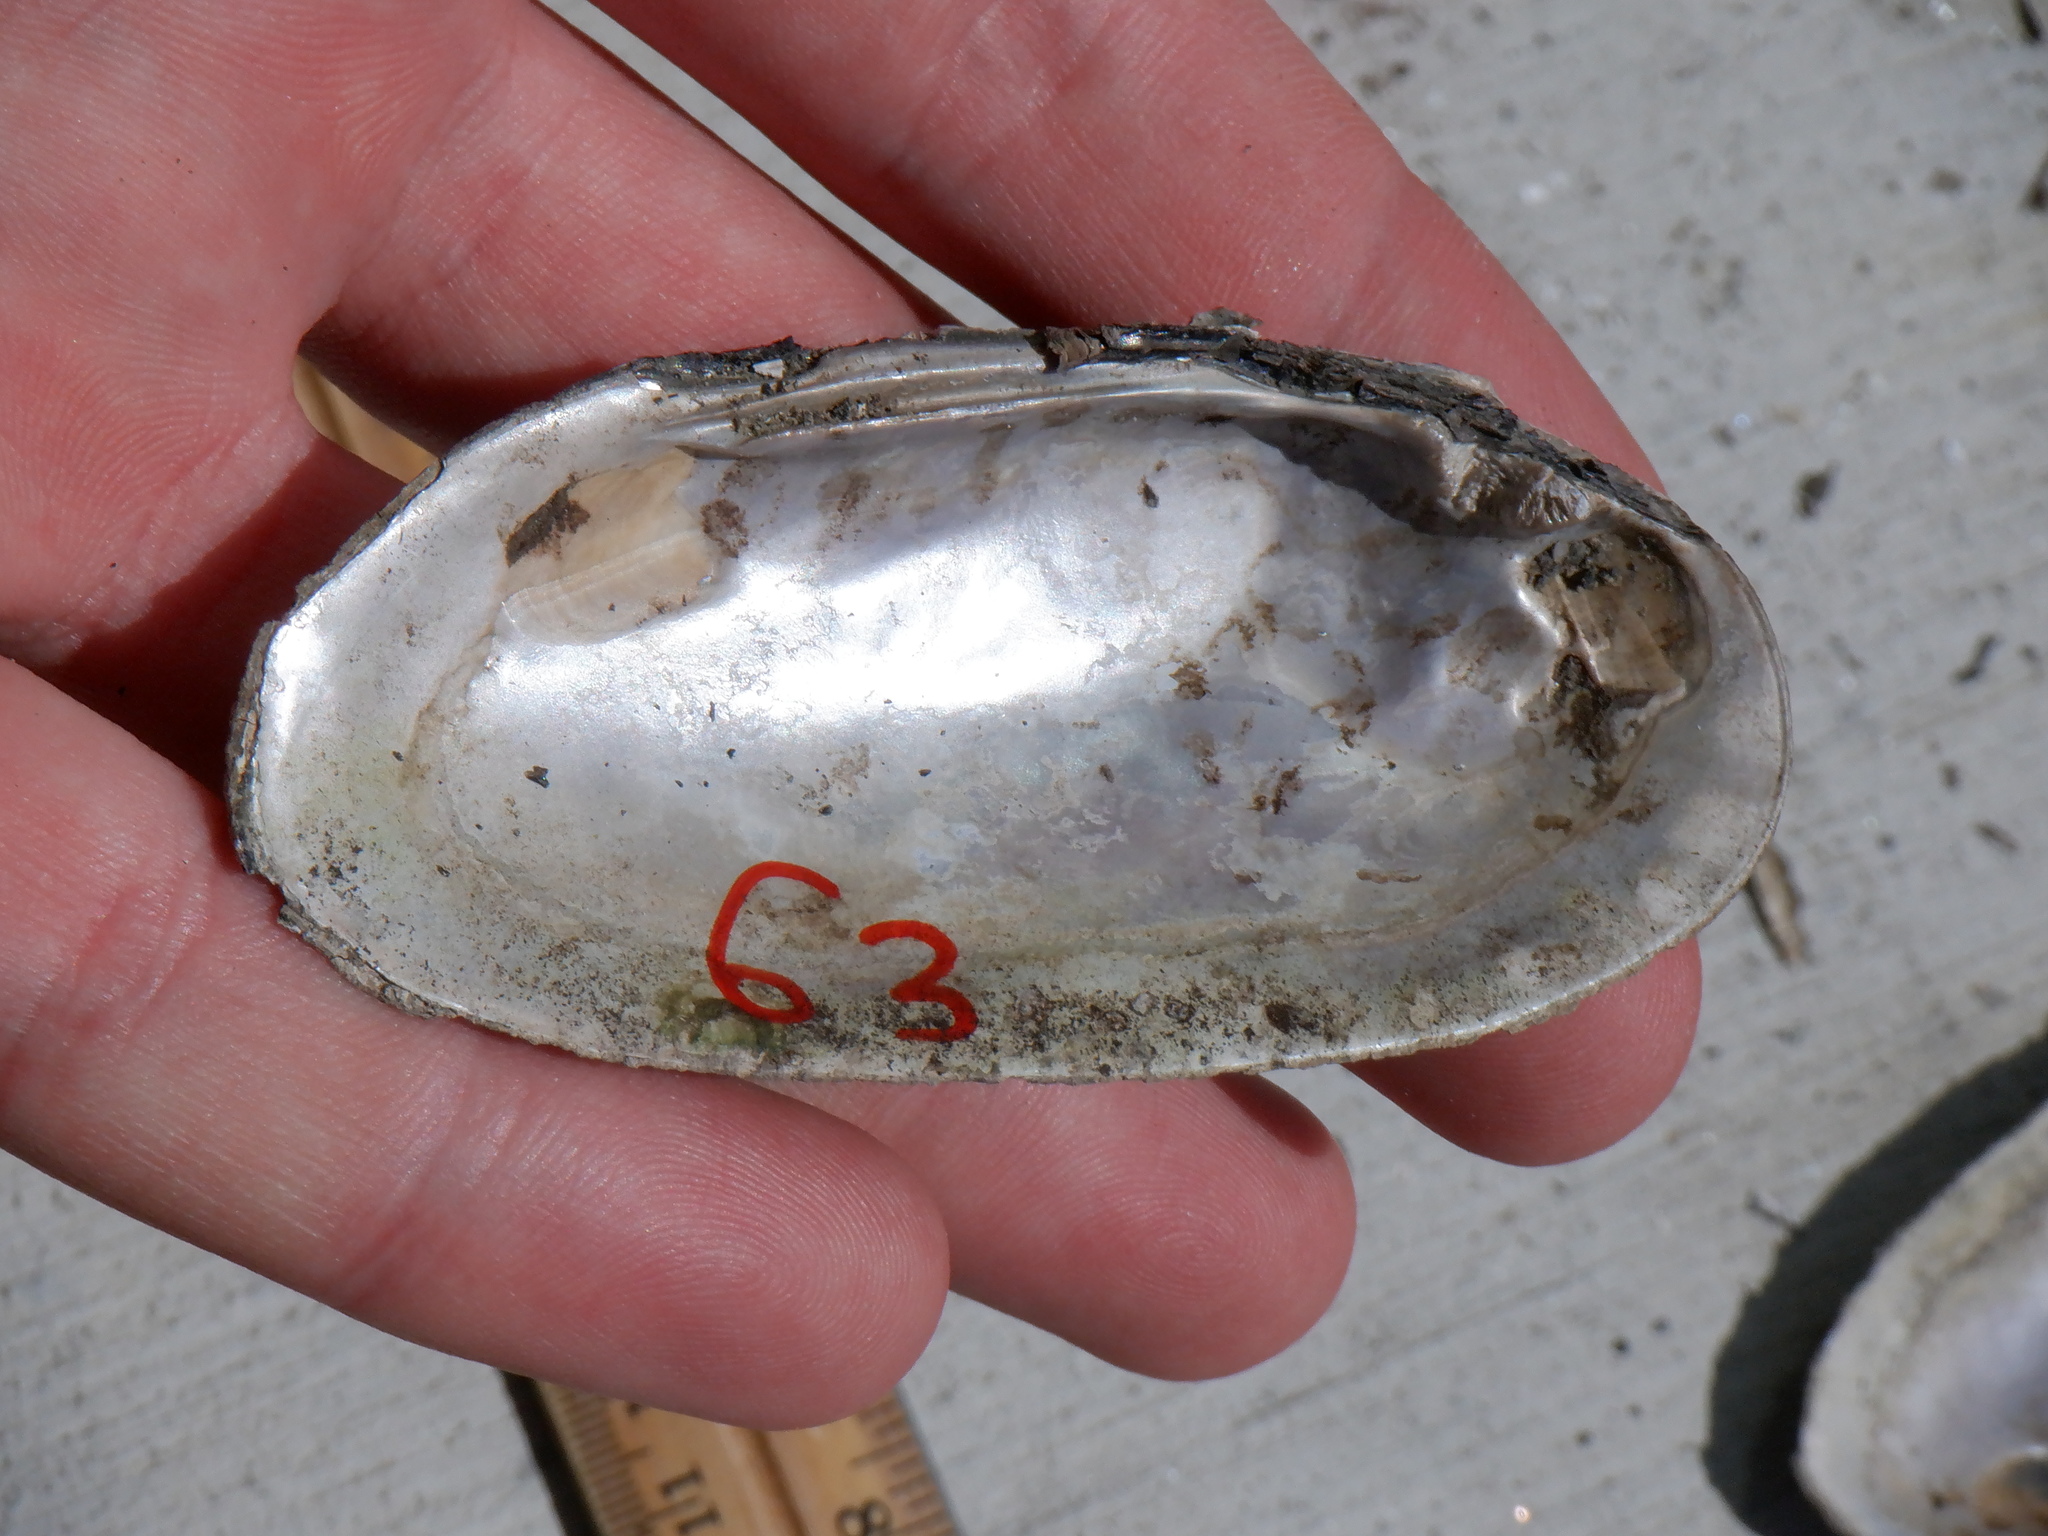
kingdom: Animalia
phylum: Mollusca
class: Bivalvia
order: Unionida
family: Unionidae
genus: Eurynia
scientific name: Eurynia dilatata
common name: Spike
